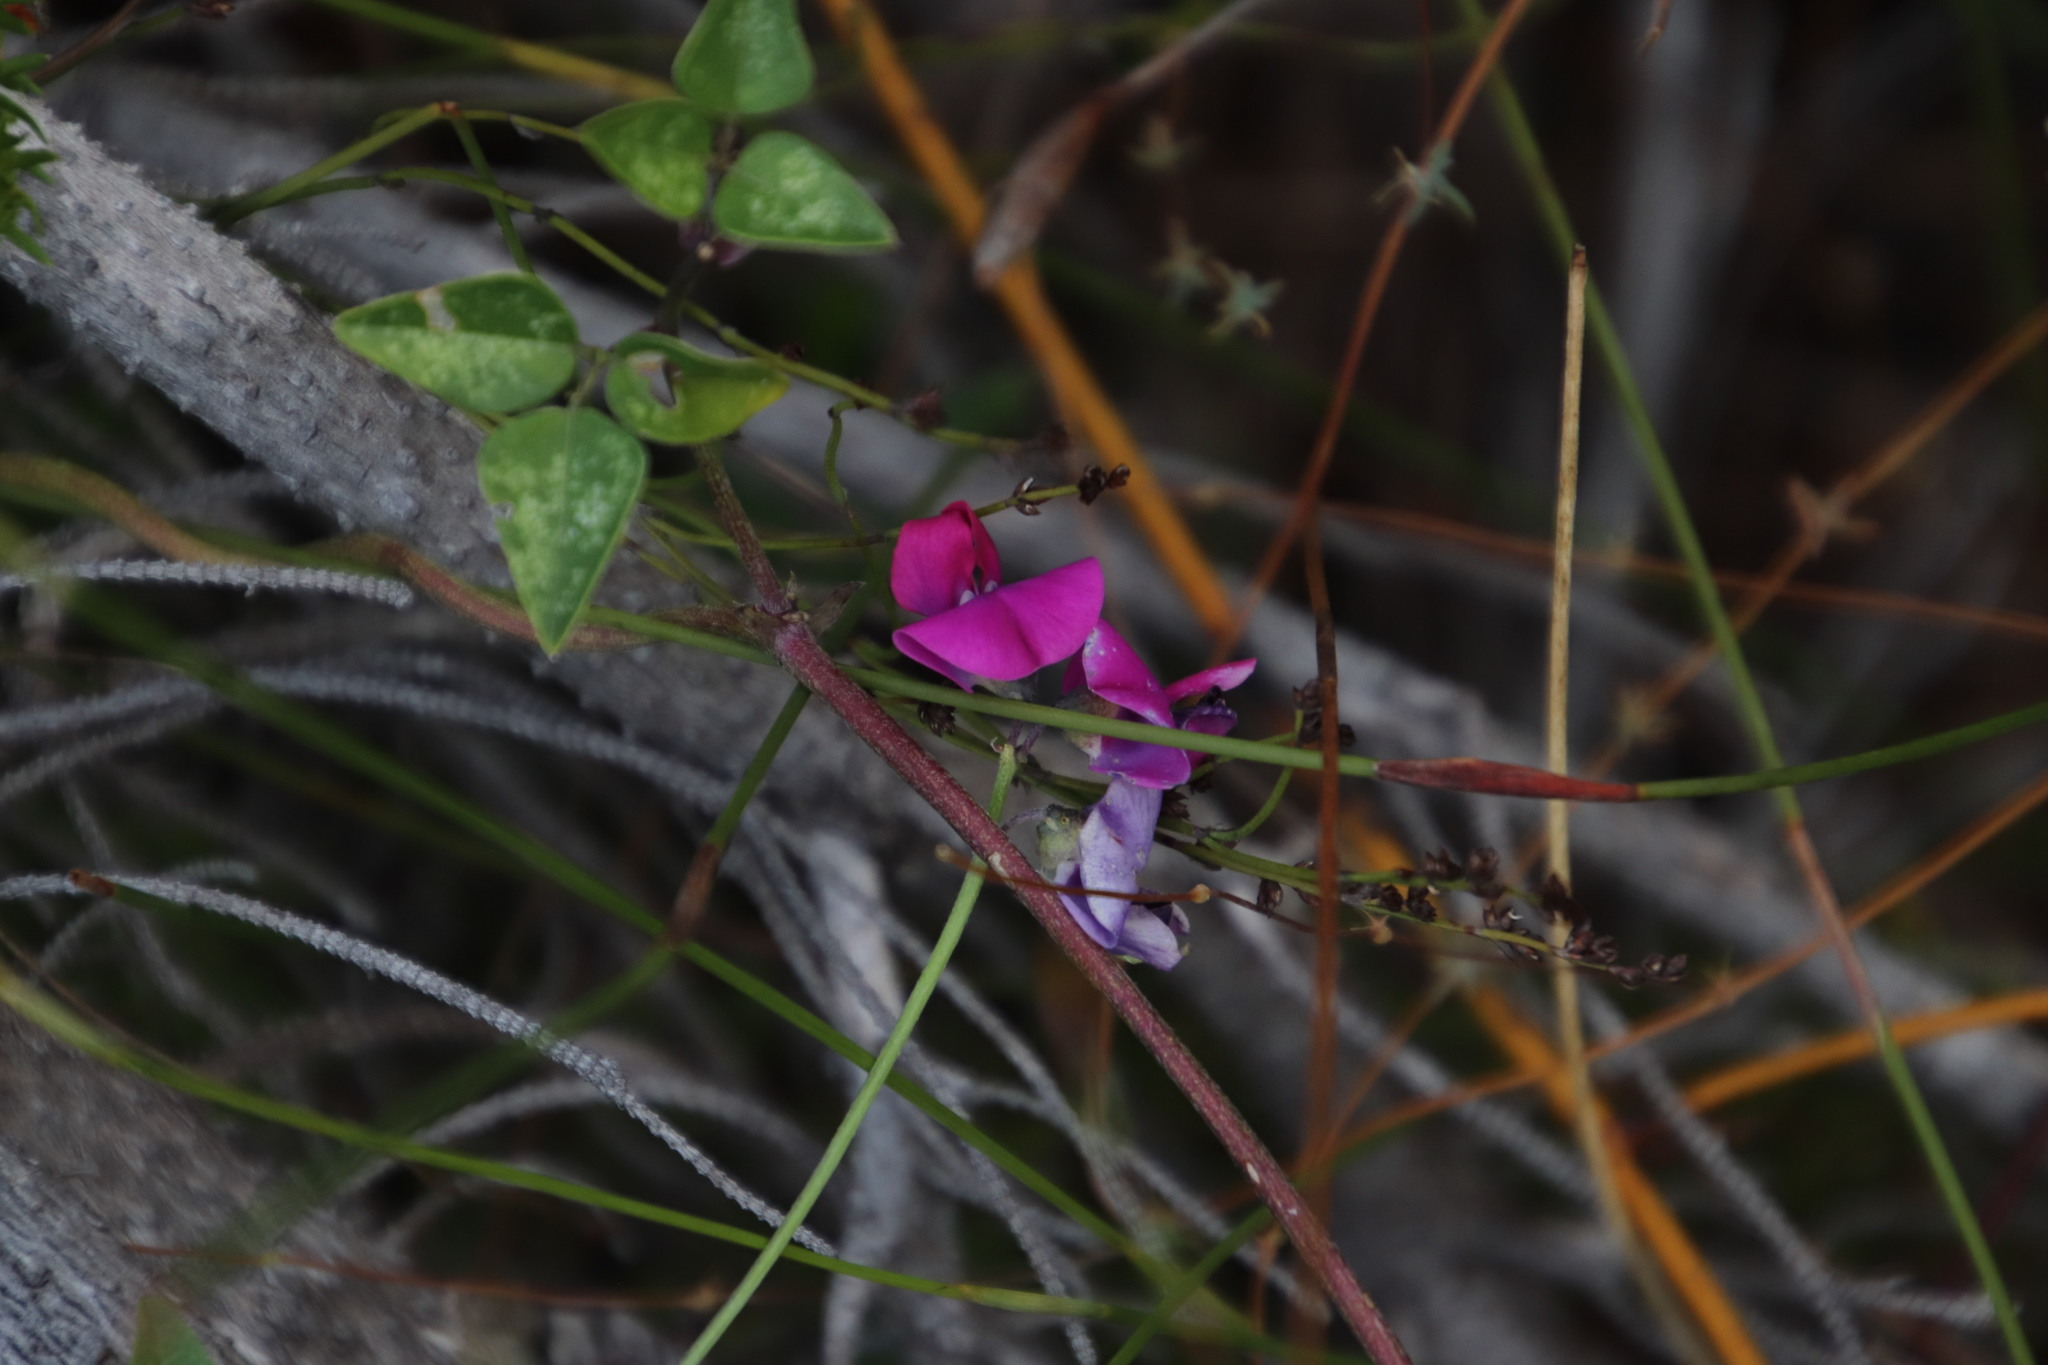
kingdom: Plantae
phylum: Tracheophyta
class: Magnoliopsida
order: Fabales
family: Fabaceae
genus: Dipogon
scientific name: Dipogon lignosus
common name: Okie bean
